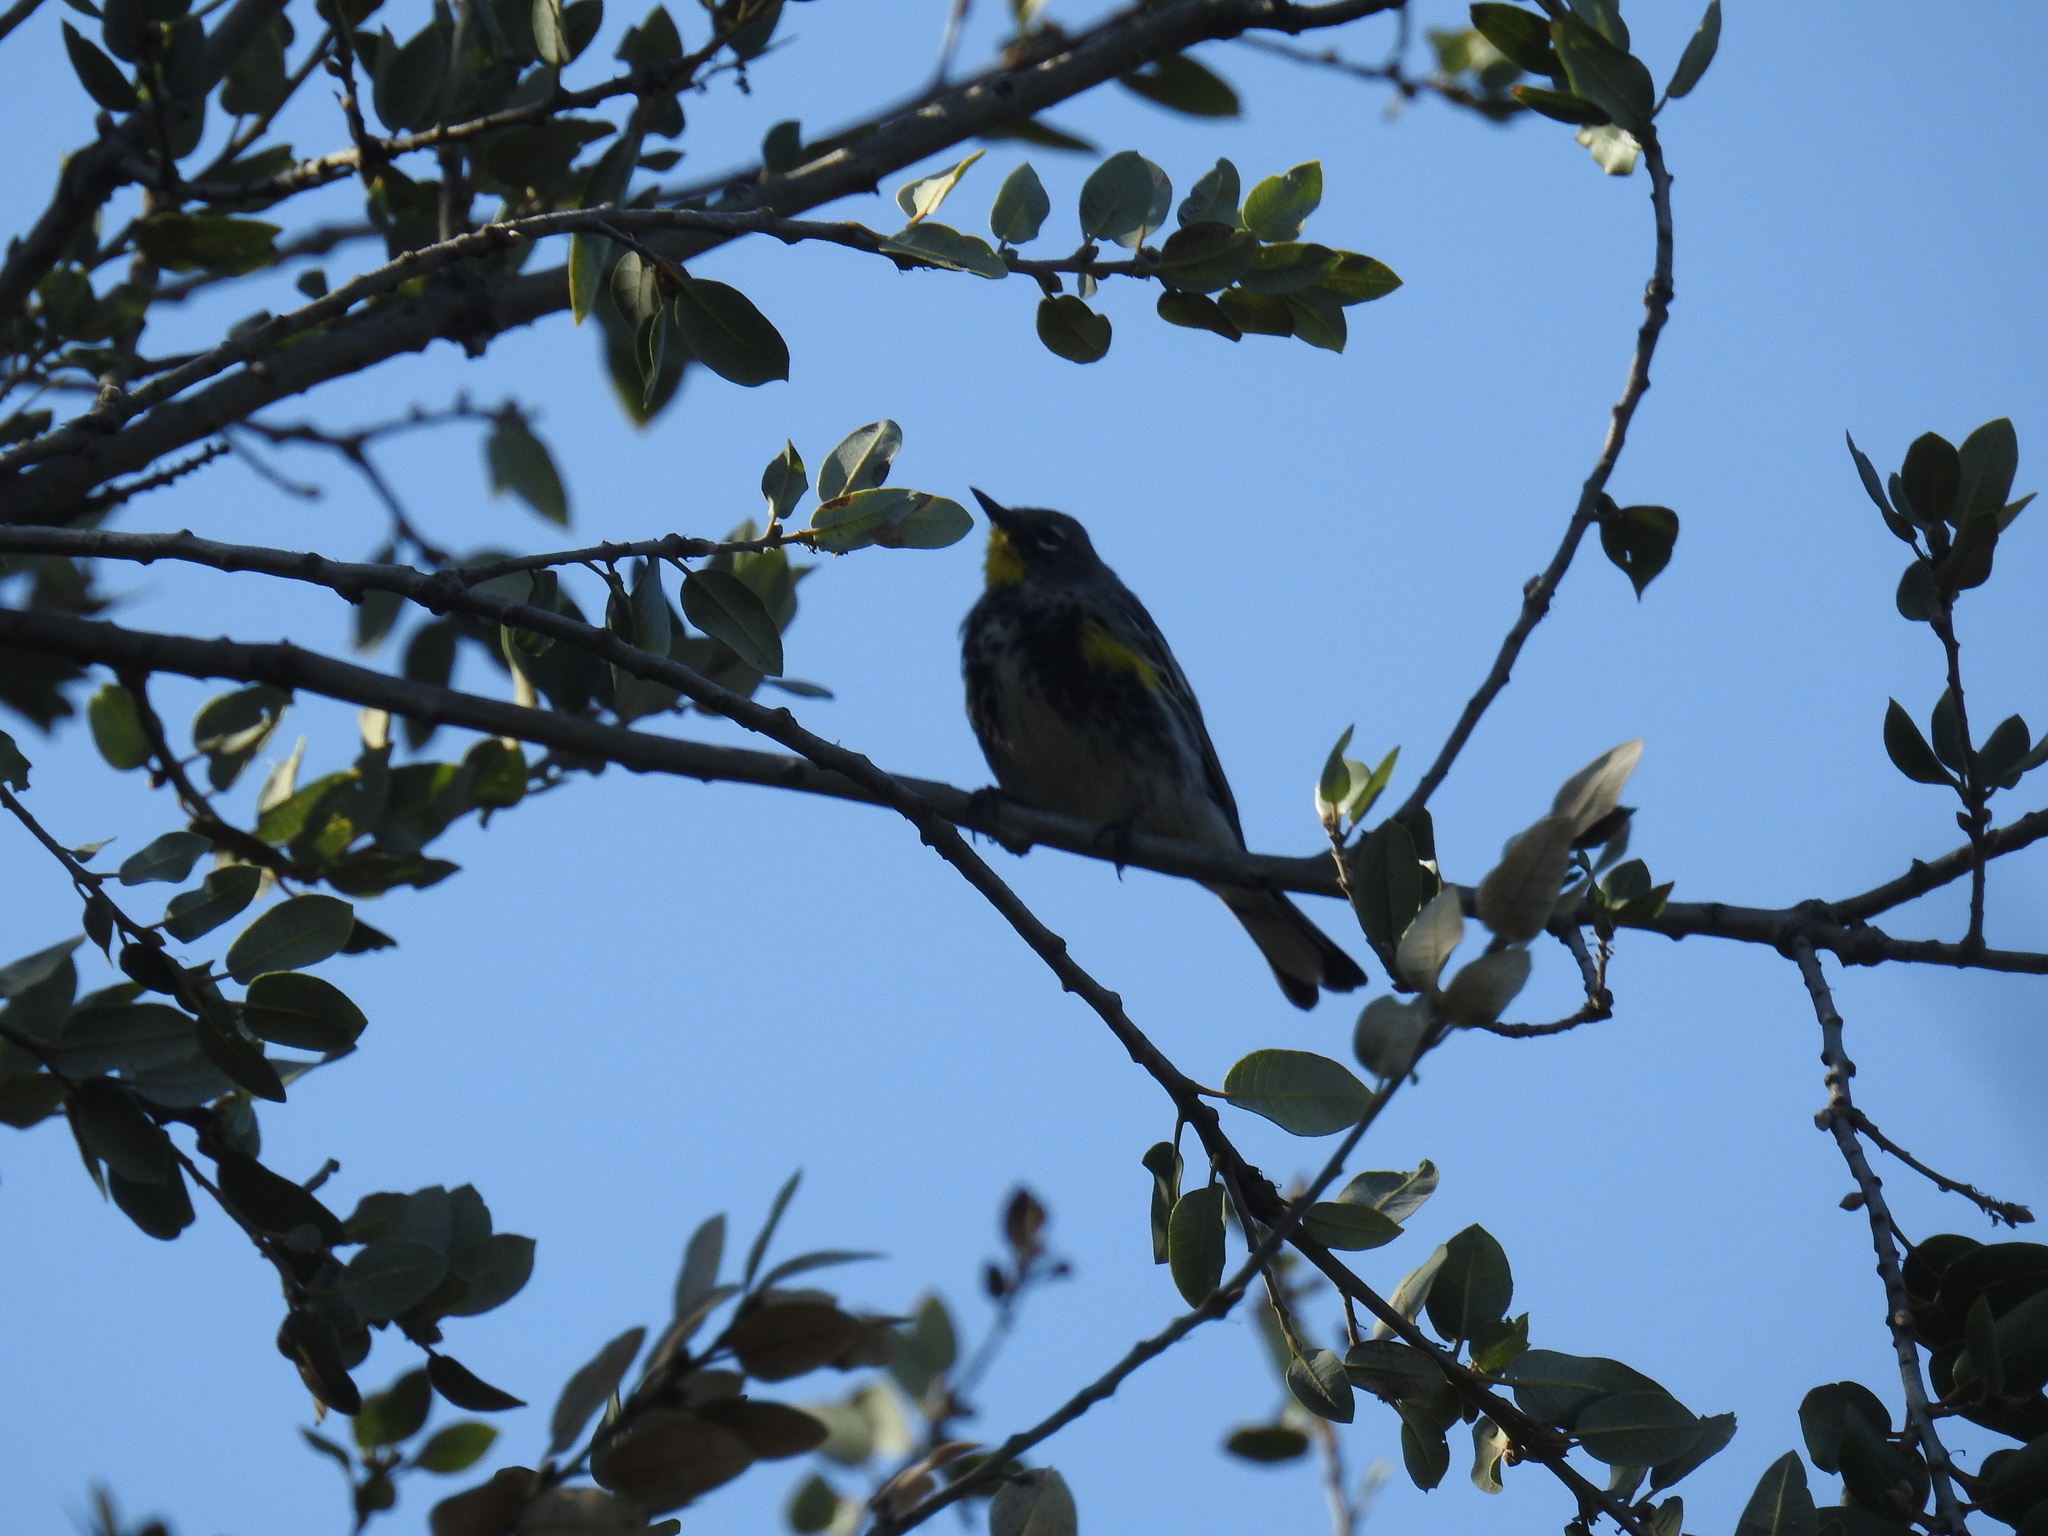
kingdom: Animalia
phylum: Chordata
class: Aves
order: Passeriformes
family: Parulidae
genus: Setophaga
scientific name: Setophaga coronata
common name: Myrtle warbler
